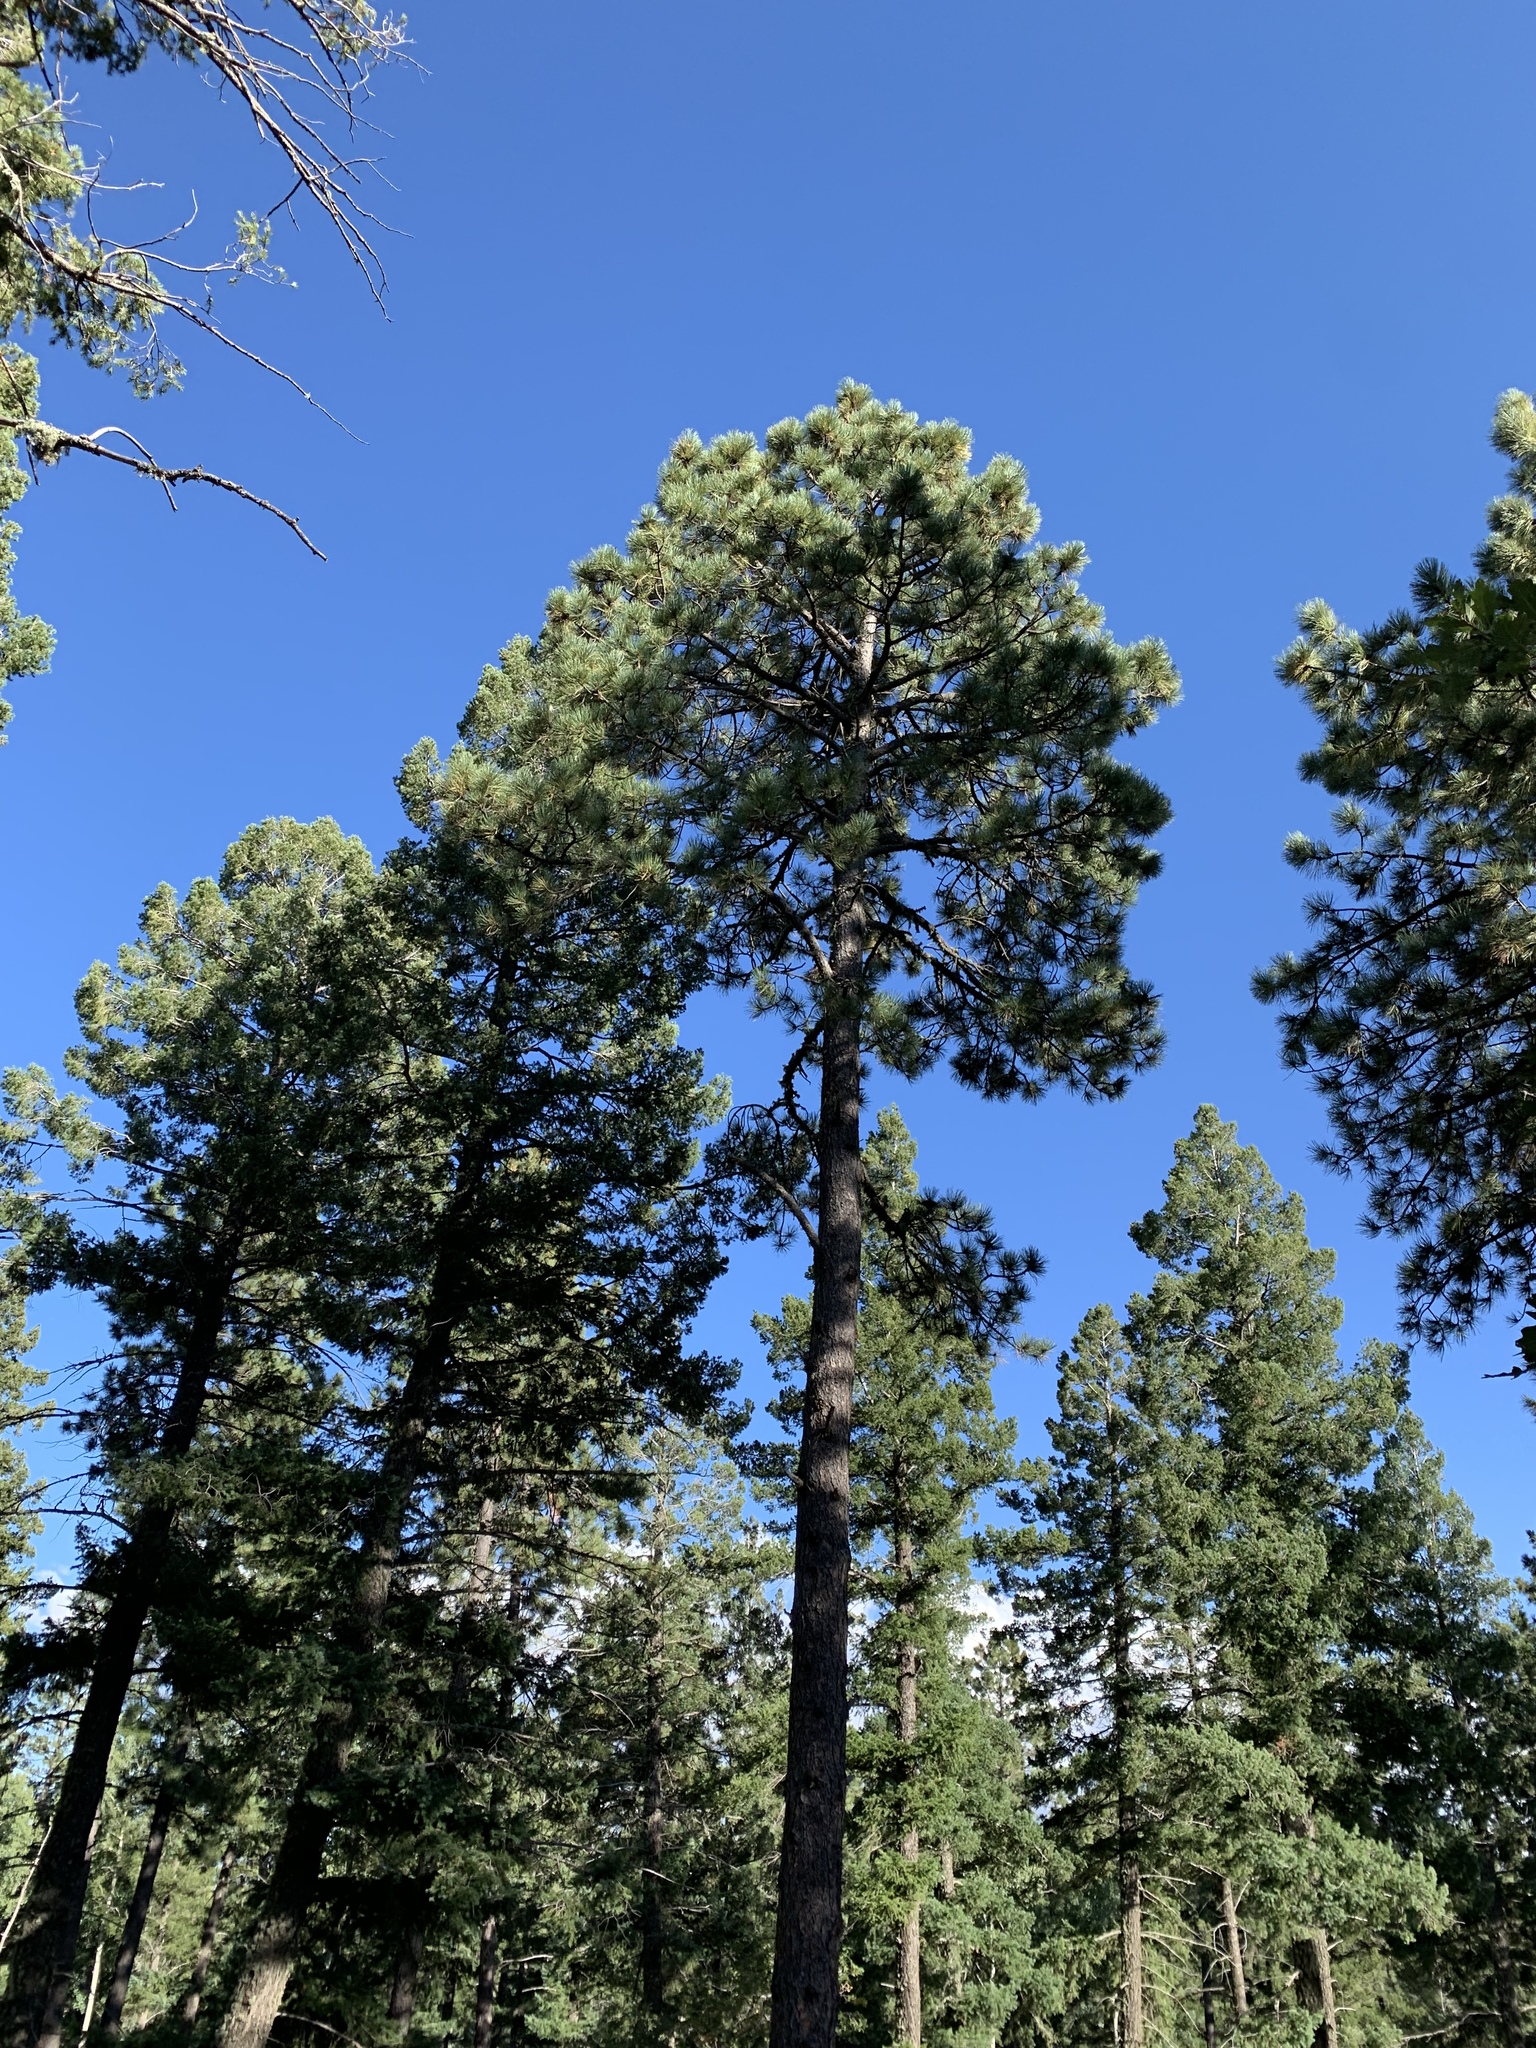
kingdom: Plantae
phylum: Tracheophyta
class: Pinopsida
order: Pinales
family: Pinaceae
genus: Pinus
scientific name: Pinus ponderosa
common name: Western yellow-pine
